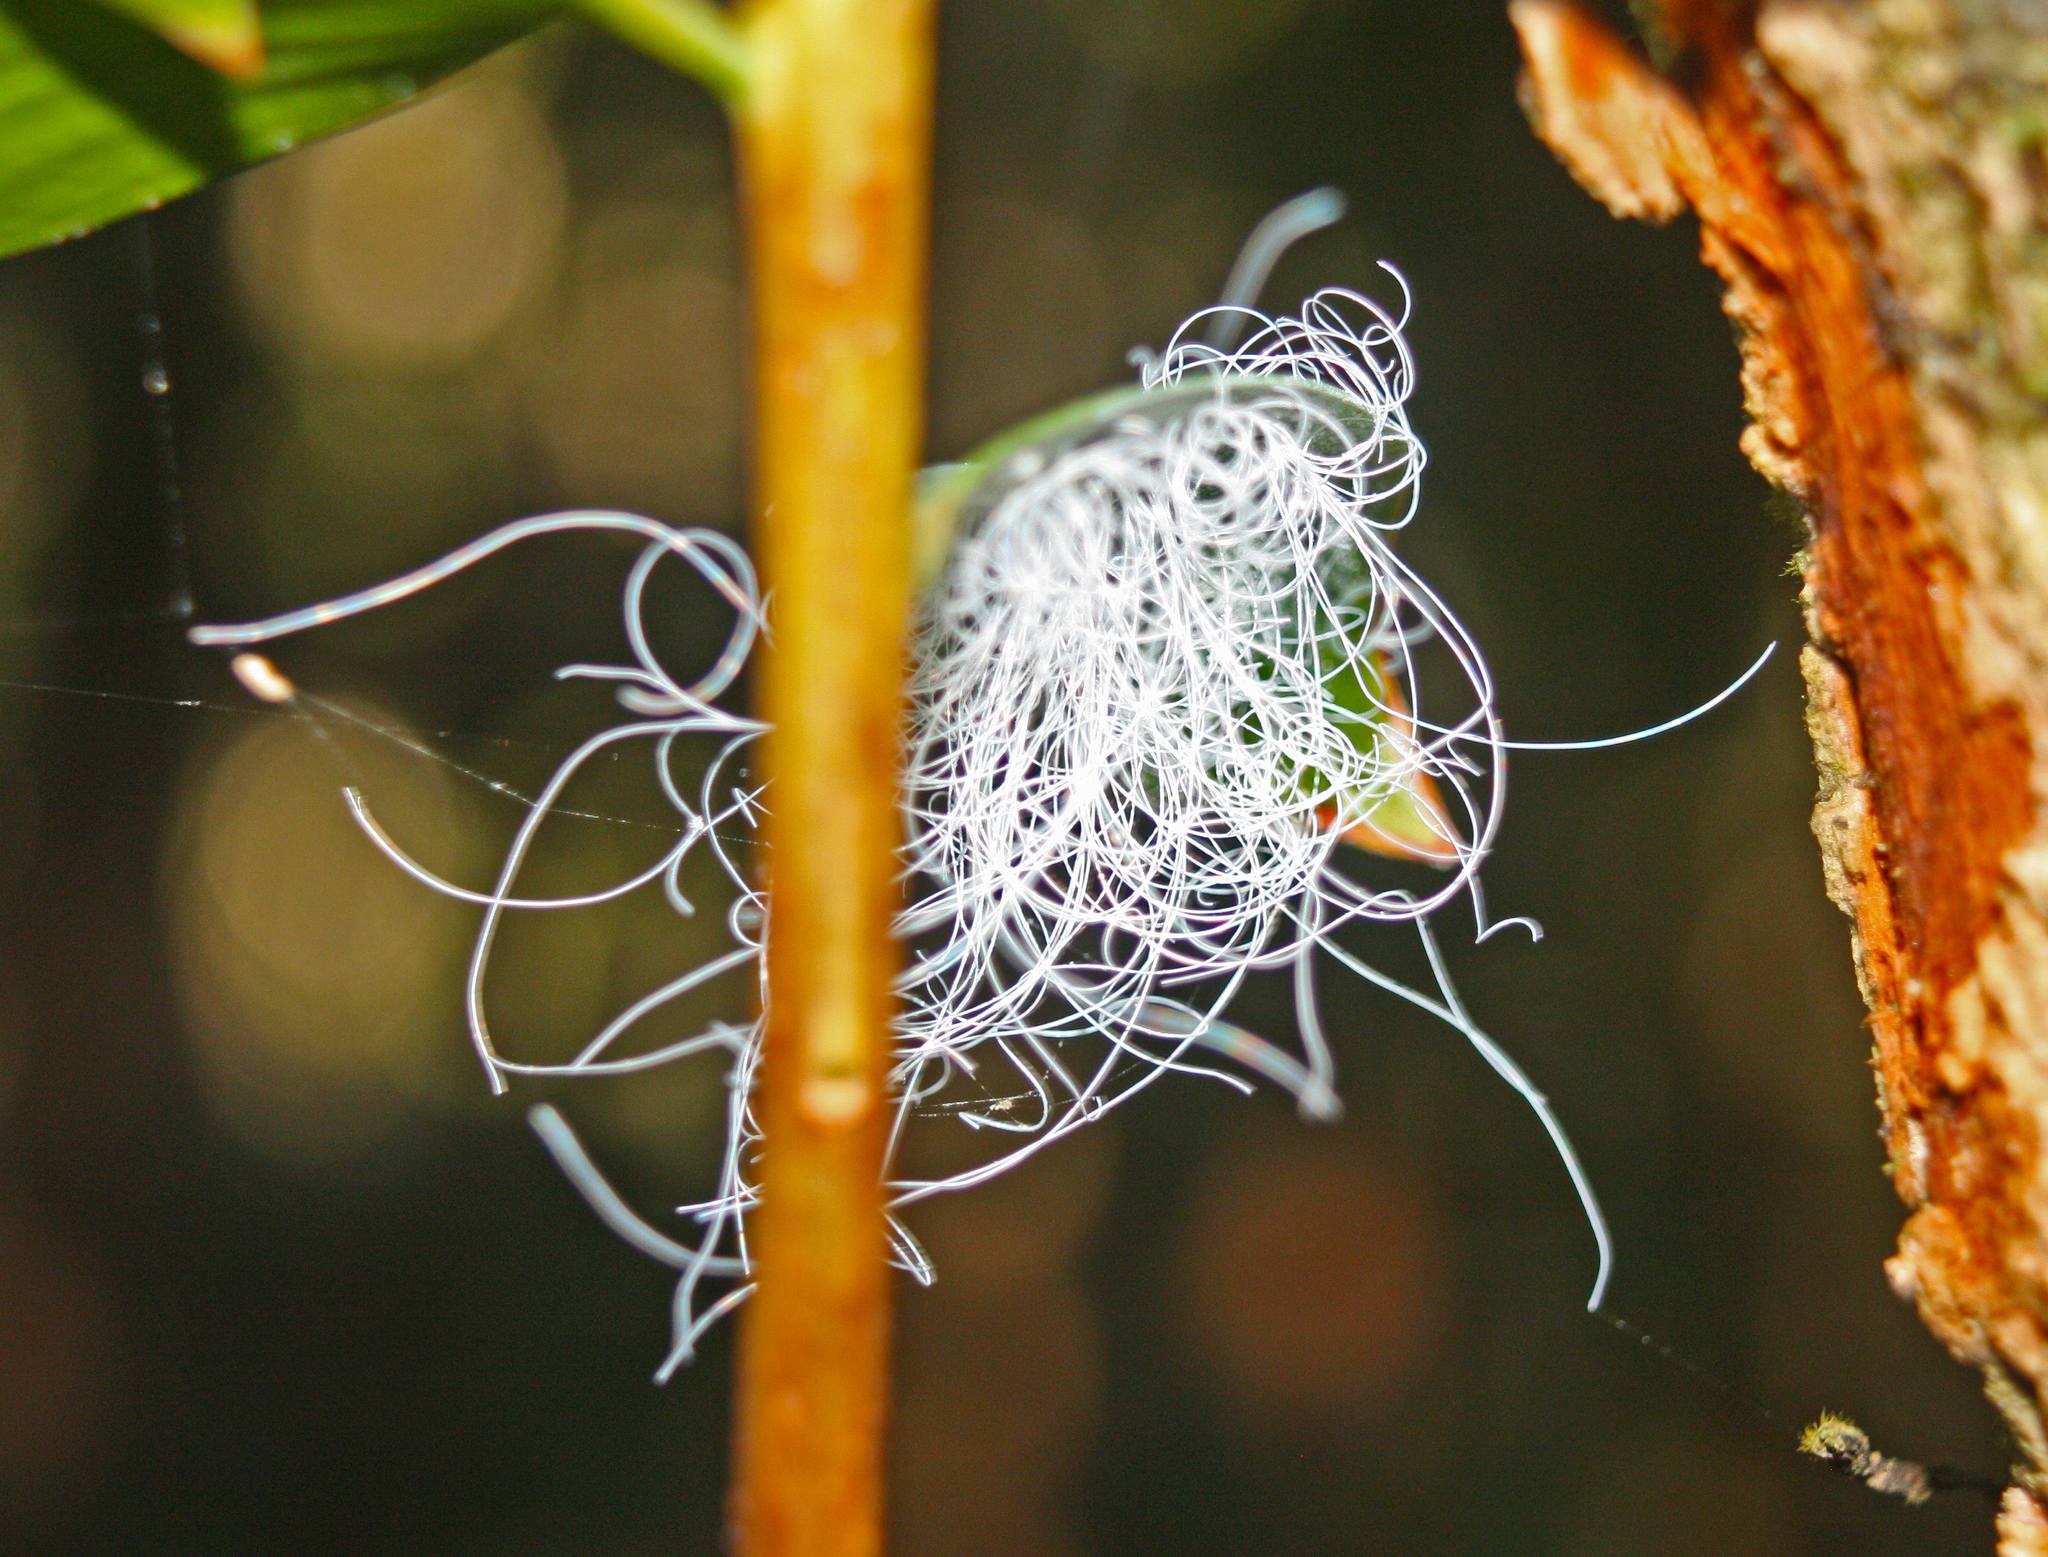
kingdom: Animalia
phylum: Arthropoda
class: Insecta
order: Hemiptera
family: Aleyrodidae
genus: Aleuroctarthrus
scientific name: Aleuroctarthrus
